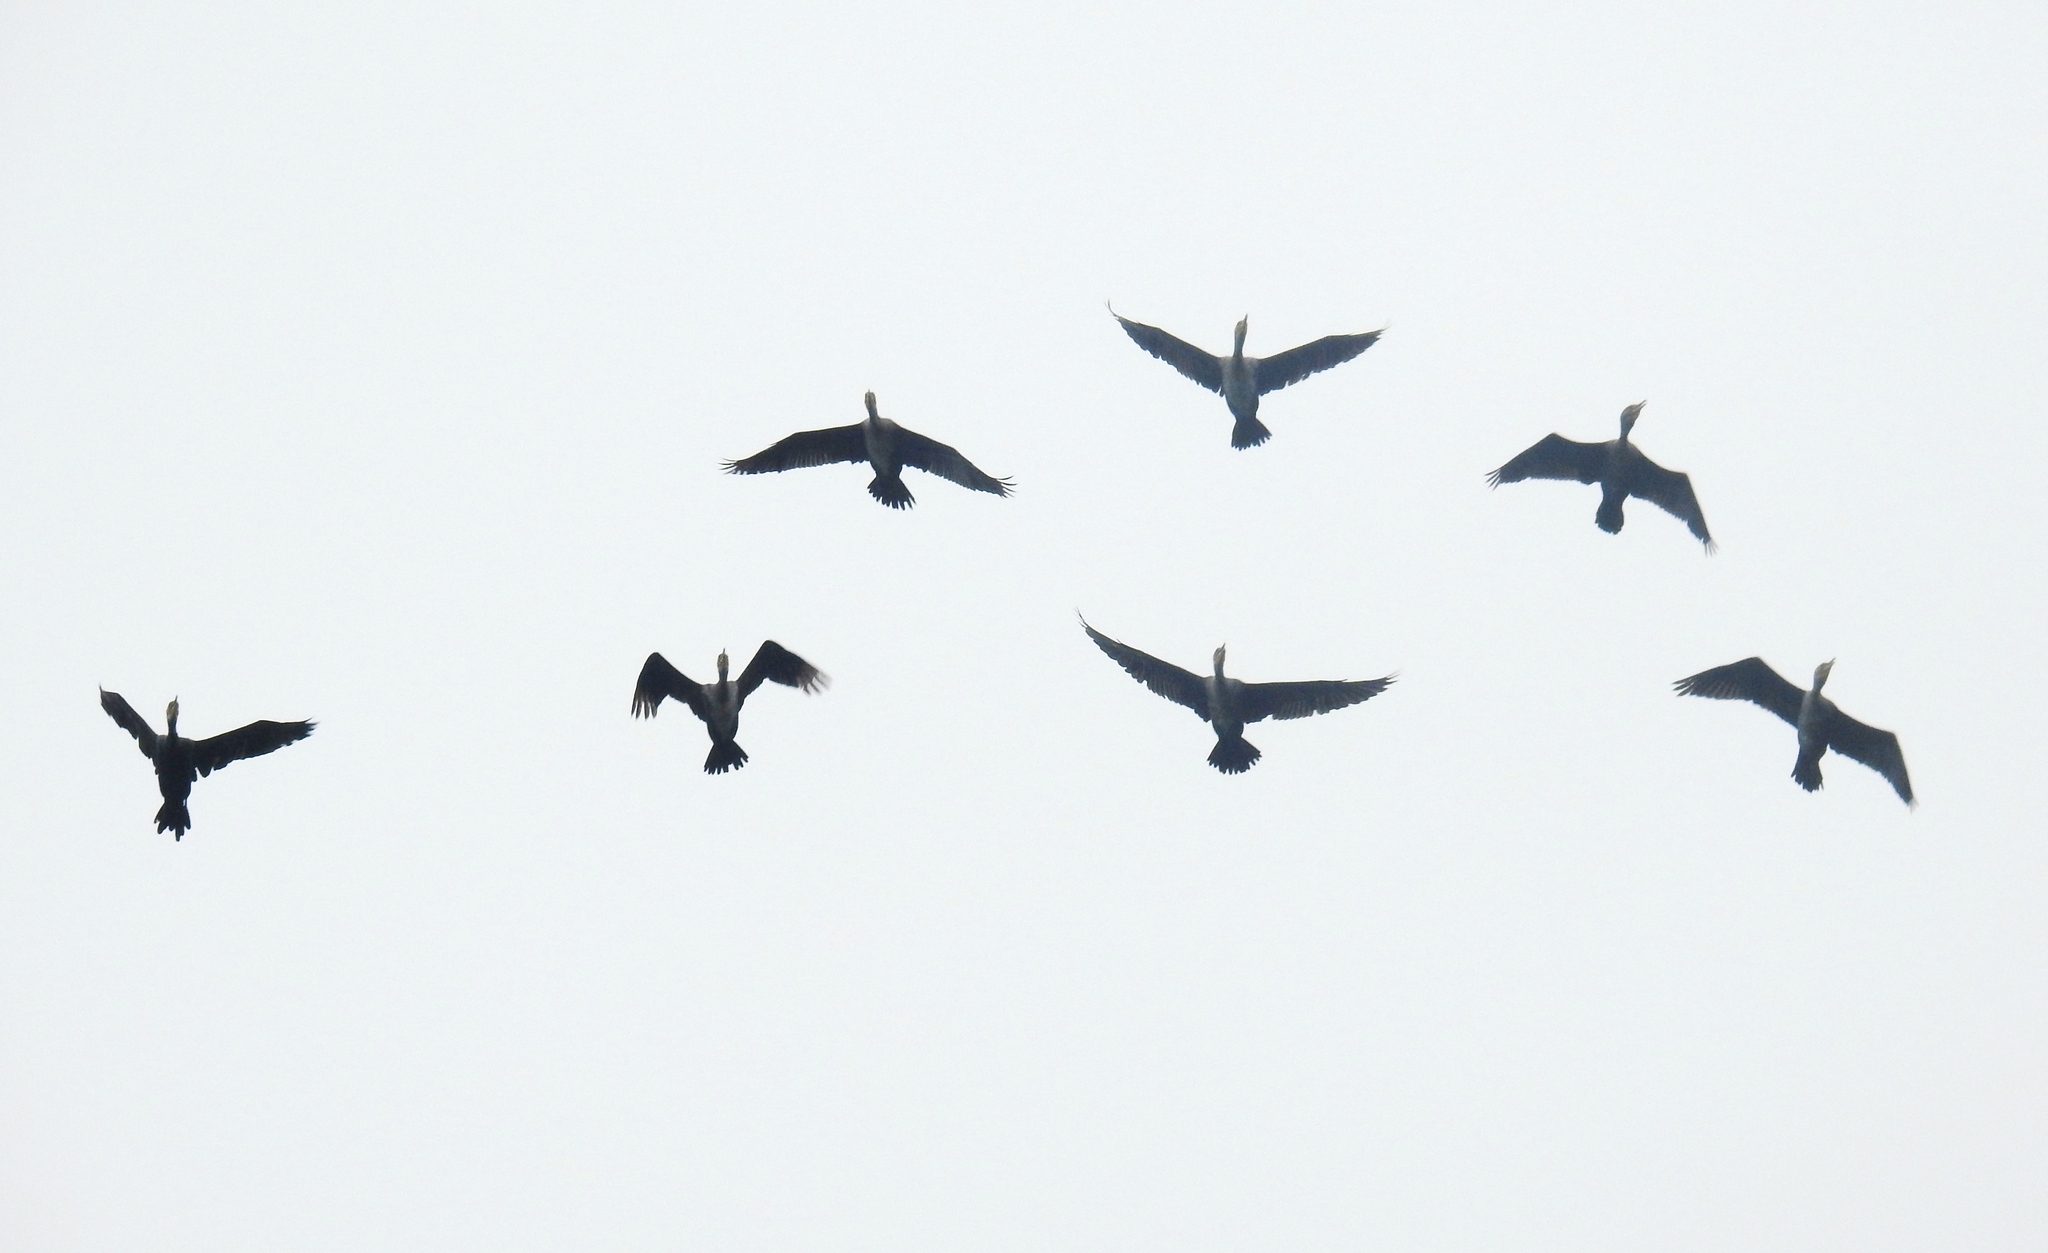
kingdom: Animalia
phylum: Chordata
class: Aves
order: Suliformes
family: Phalacrocoracidae
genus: Phalacrocorax
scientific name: Phalacrocorax fuscicollis
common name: Indian cormorant
